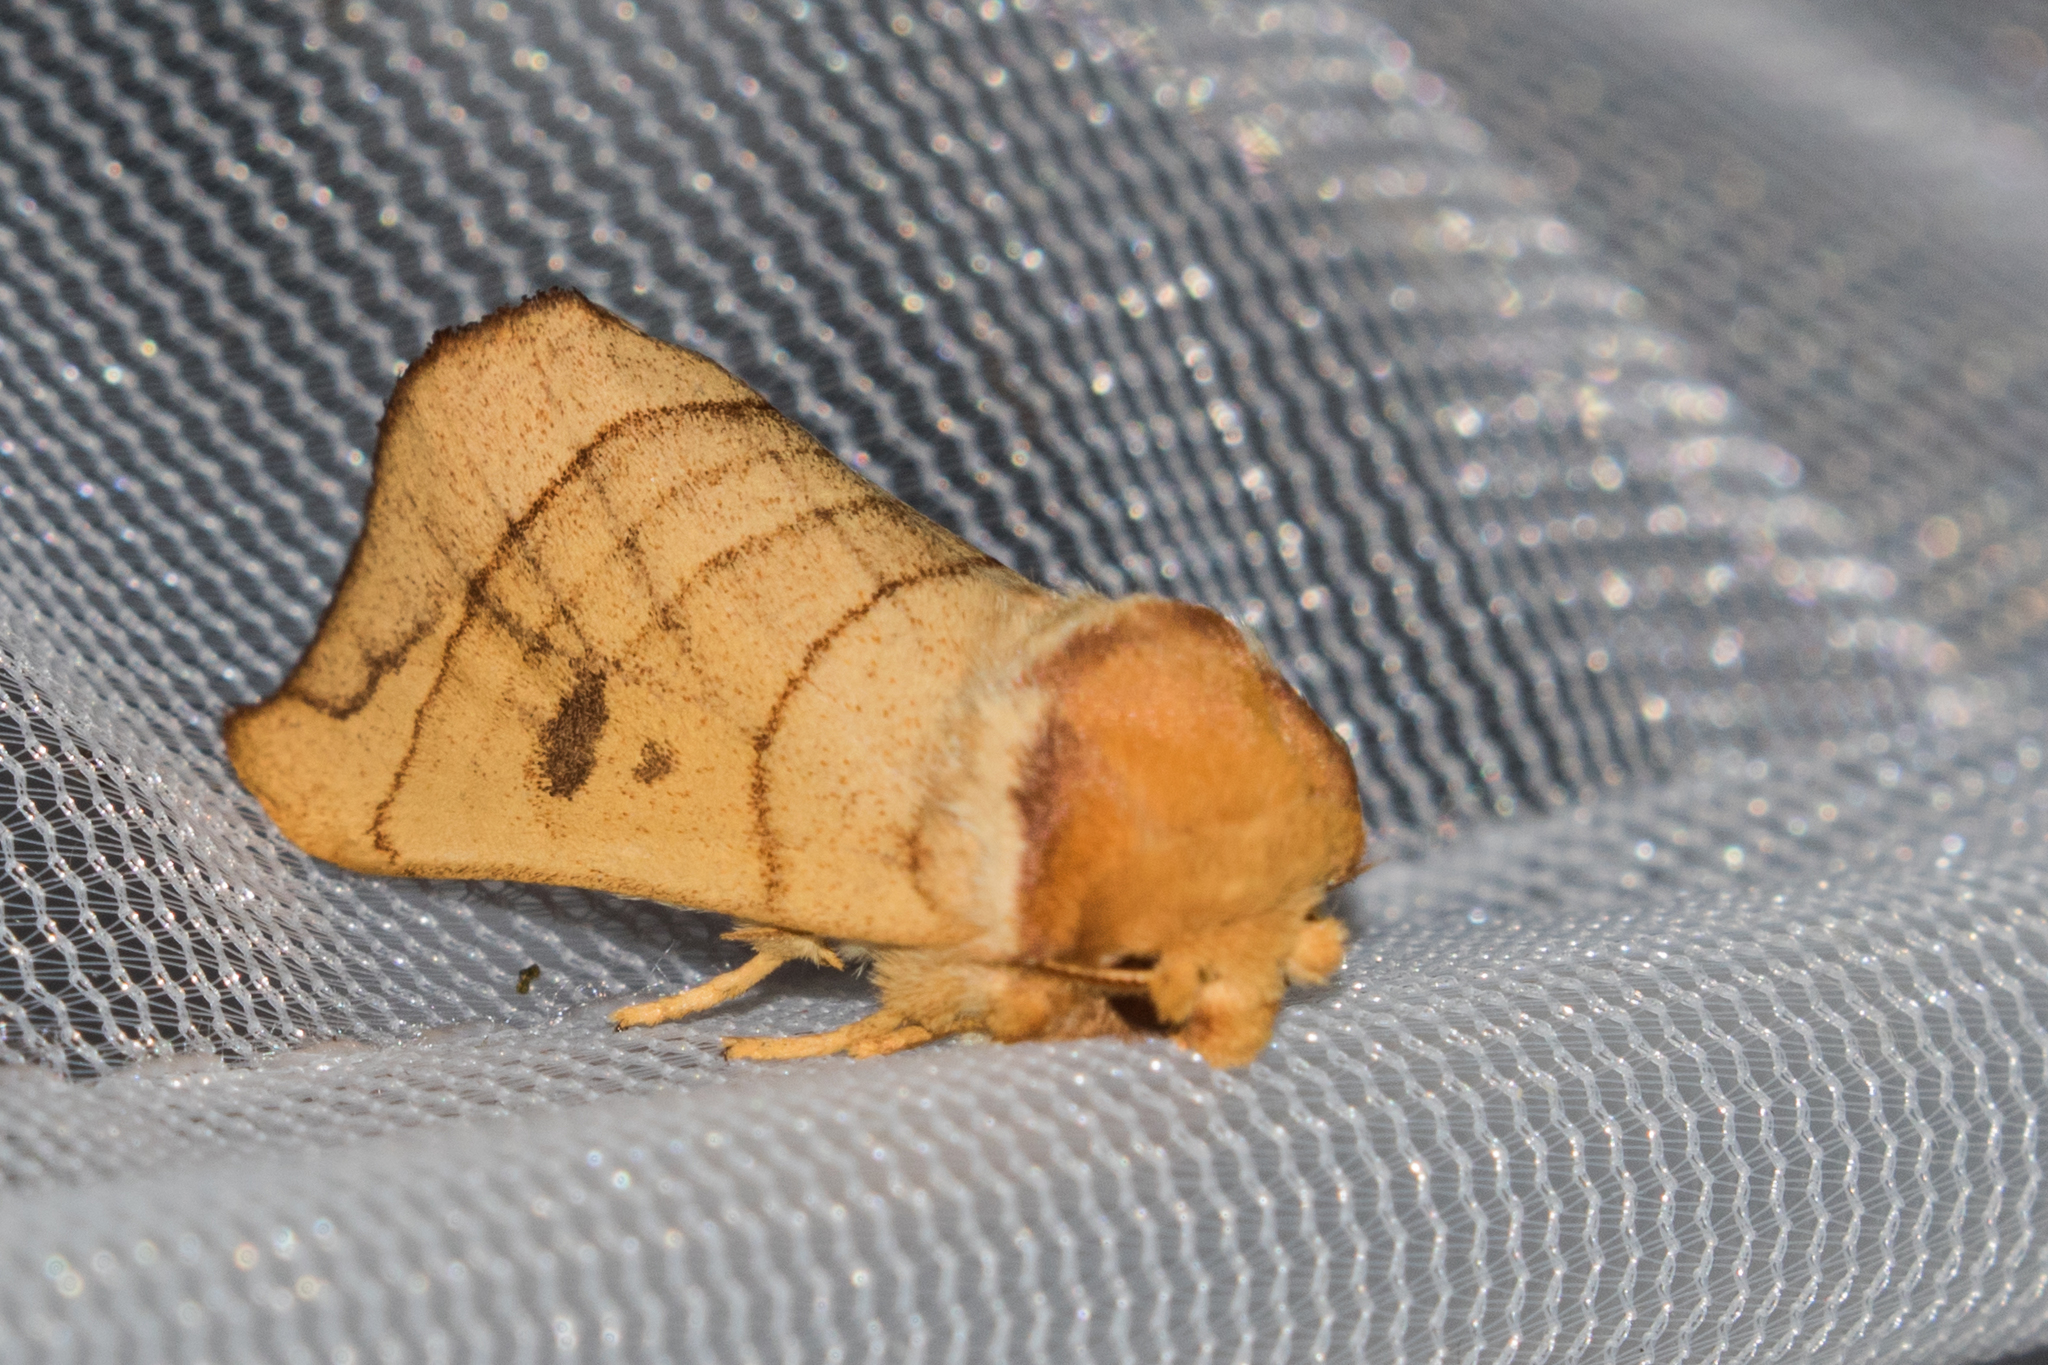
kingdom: Animalia
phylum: Arthropoda
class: Insecta
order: Lepidoptera
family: Notodontidae
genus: Datana
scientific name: Datana perspicua
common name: Spotted datana
